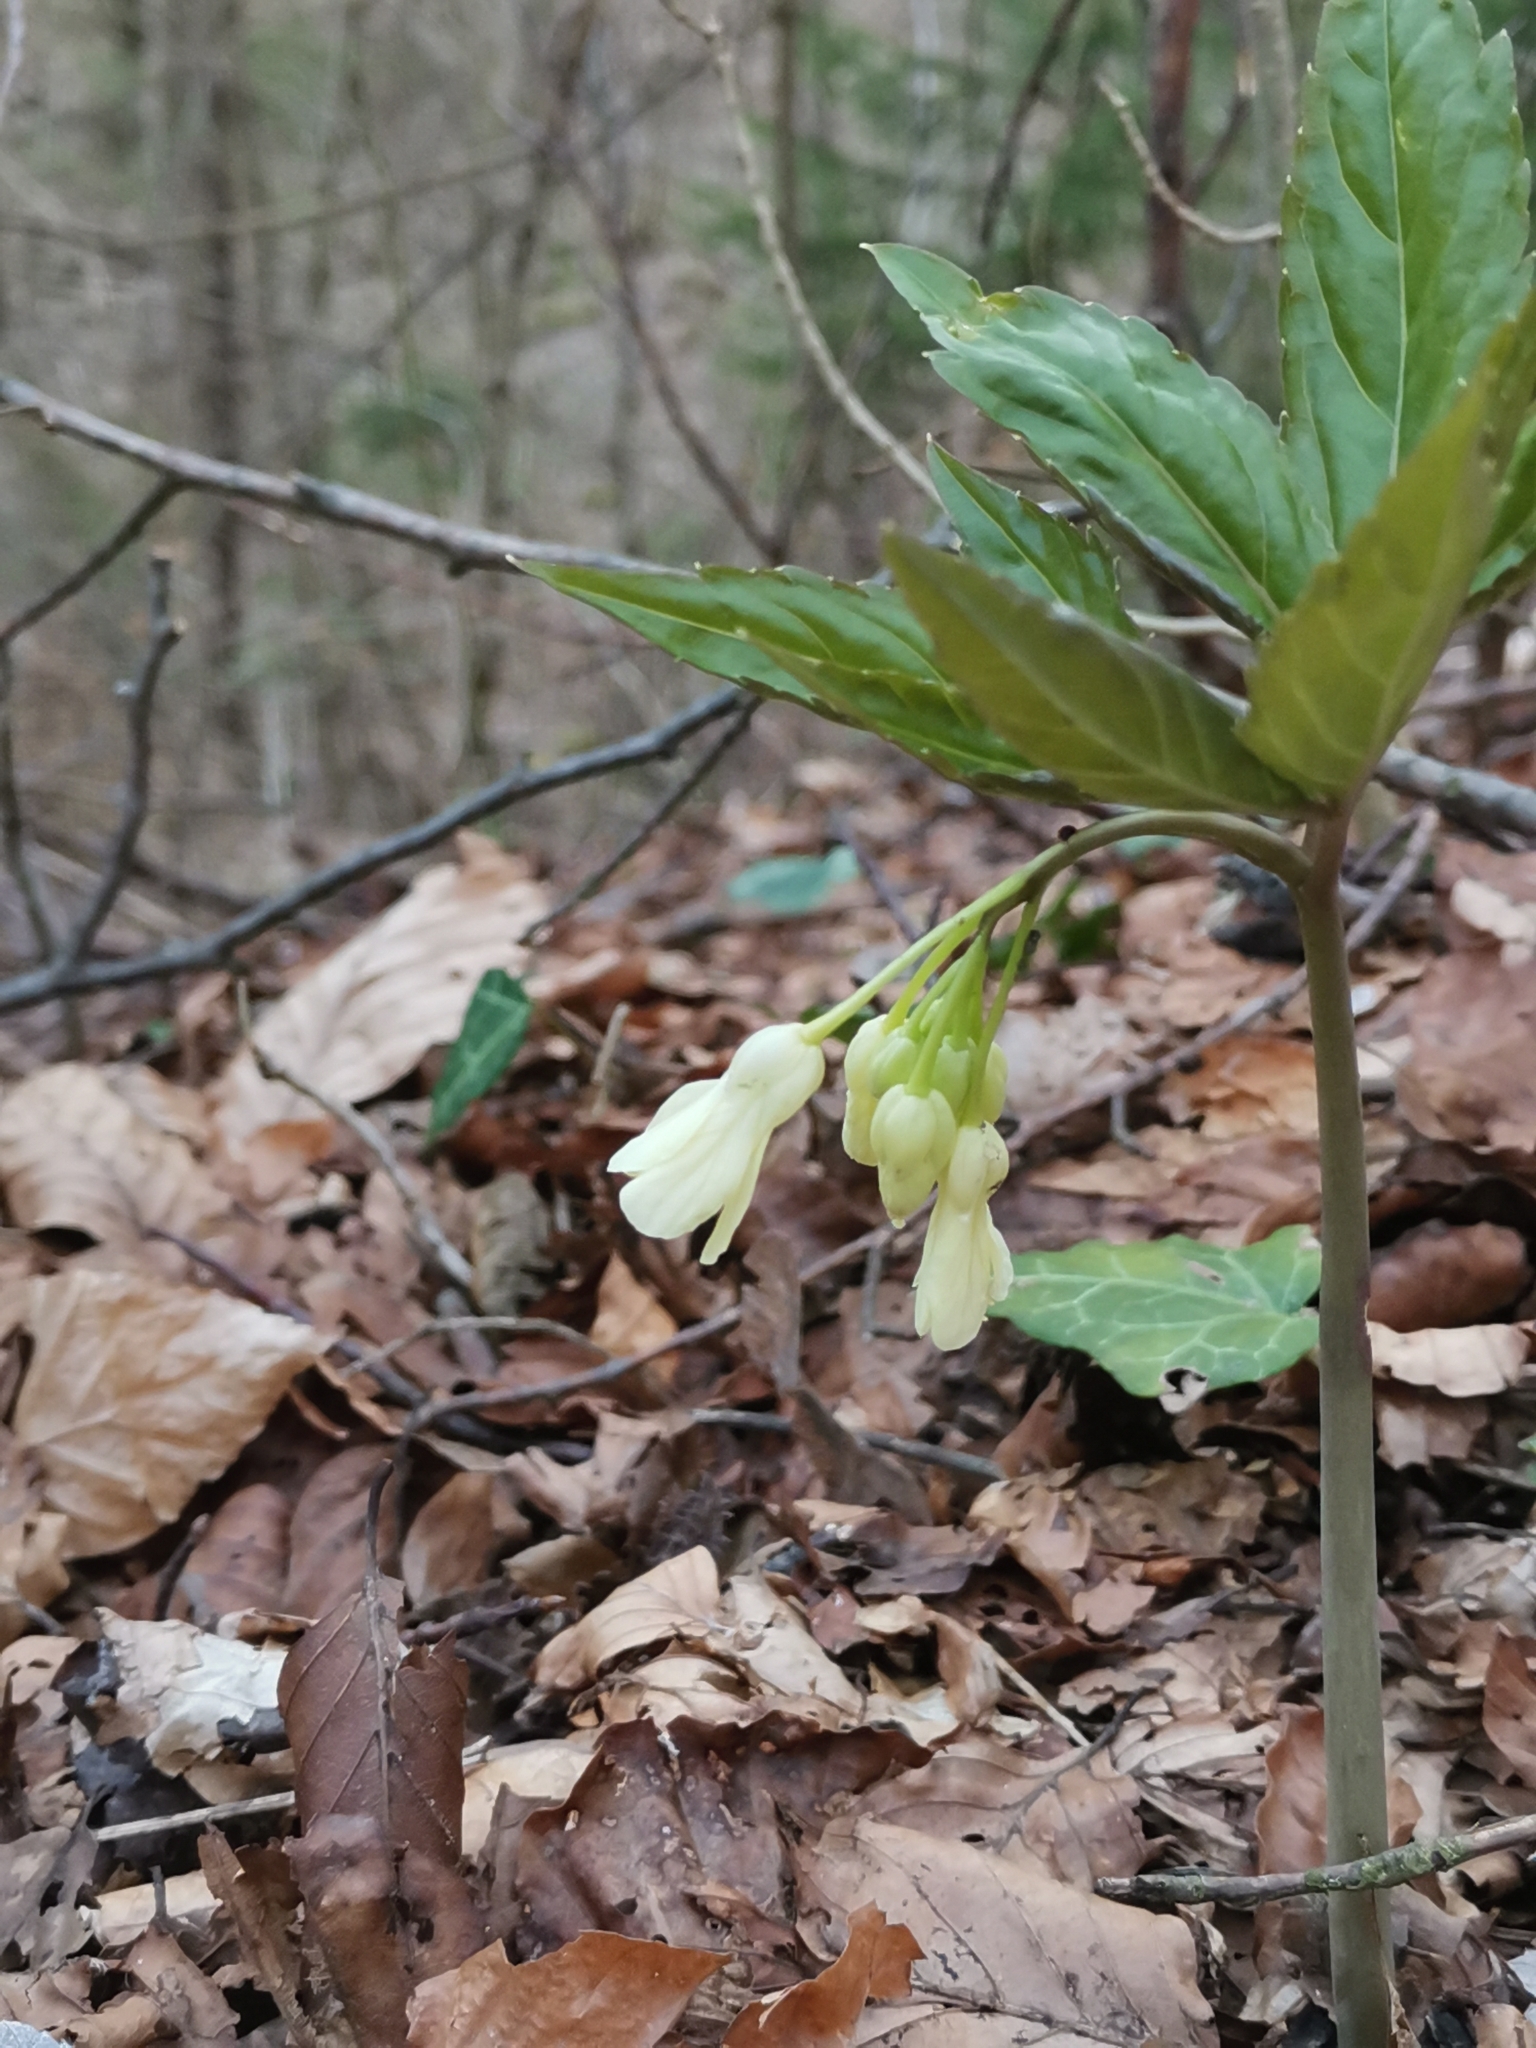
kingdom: Plantae
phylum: Tracheophyta
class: Magnoliopsida
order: Brassicales
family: Brassicaceae
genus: Cardamine
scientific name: Cardamine enneaphyllos
